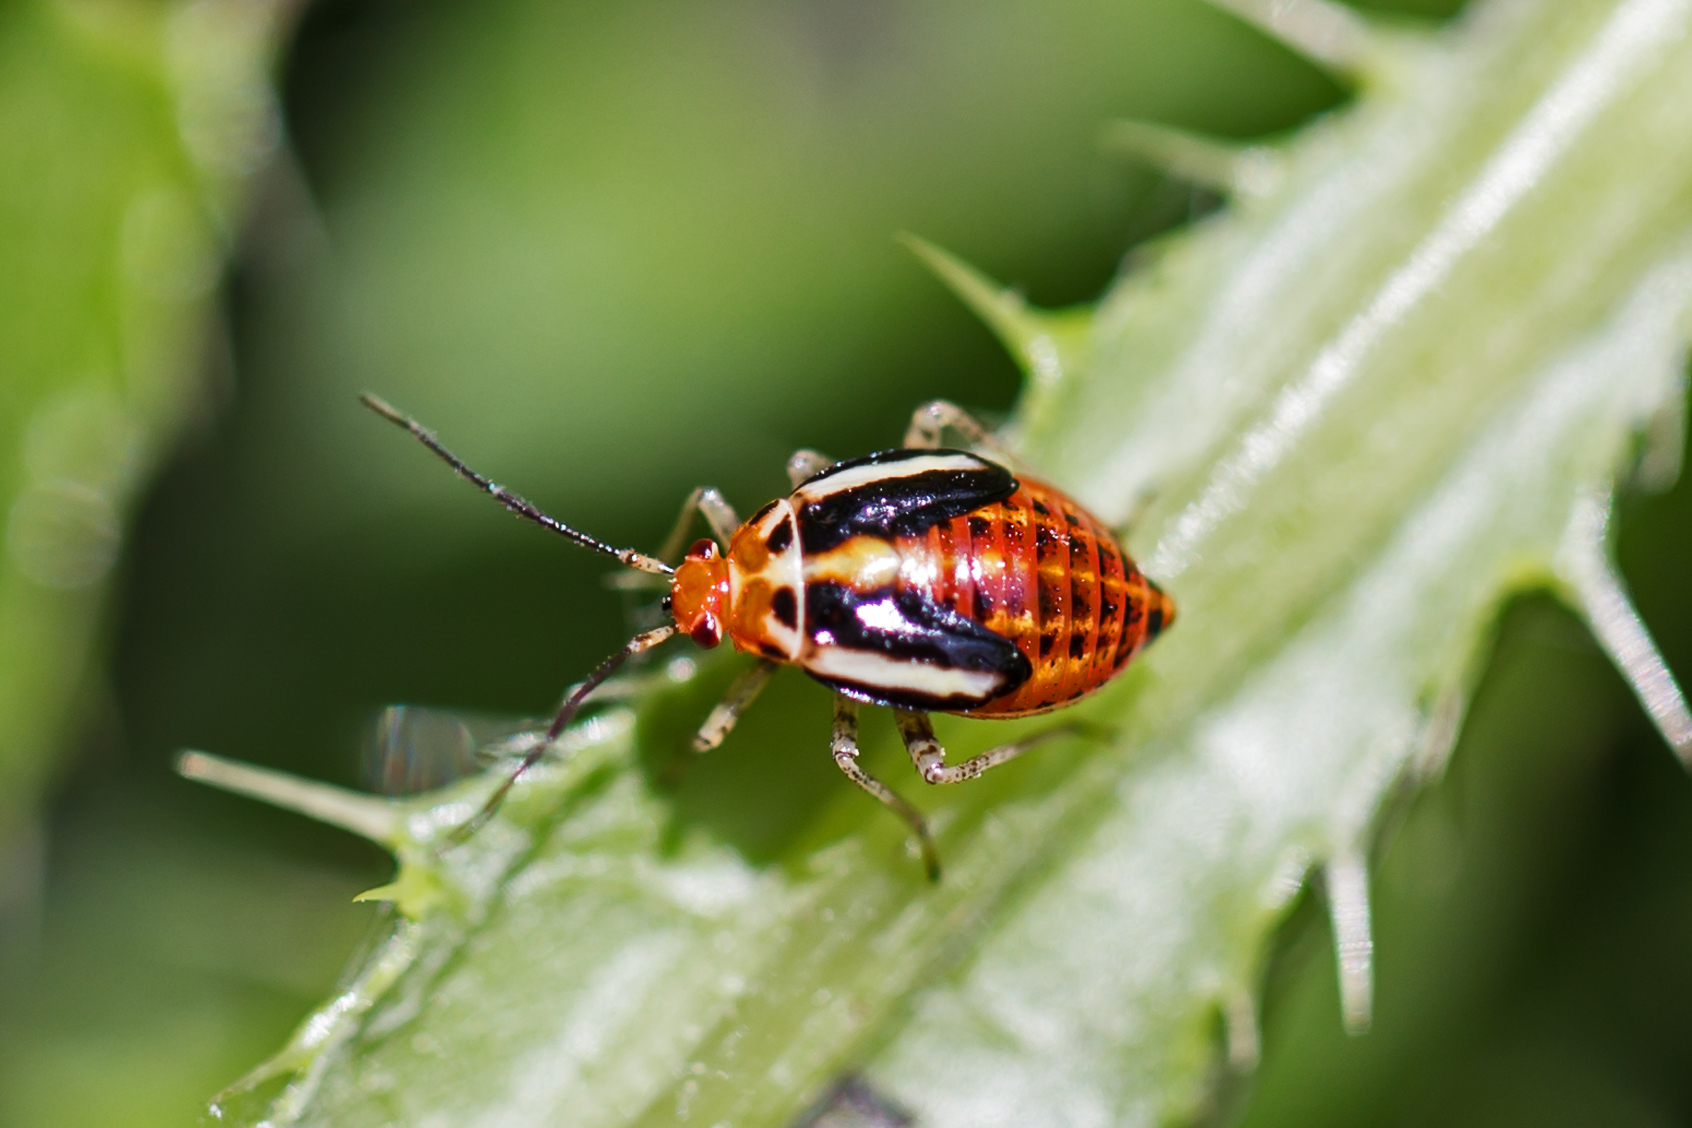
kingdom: Animalia
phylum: Arthropoda
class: Insecta
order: Hemiptera
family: Miridae
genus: Poecilocapsus
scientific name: Poecilocapsus lineatus
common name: Four-lined plant bug
